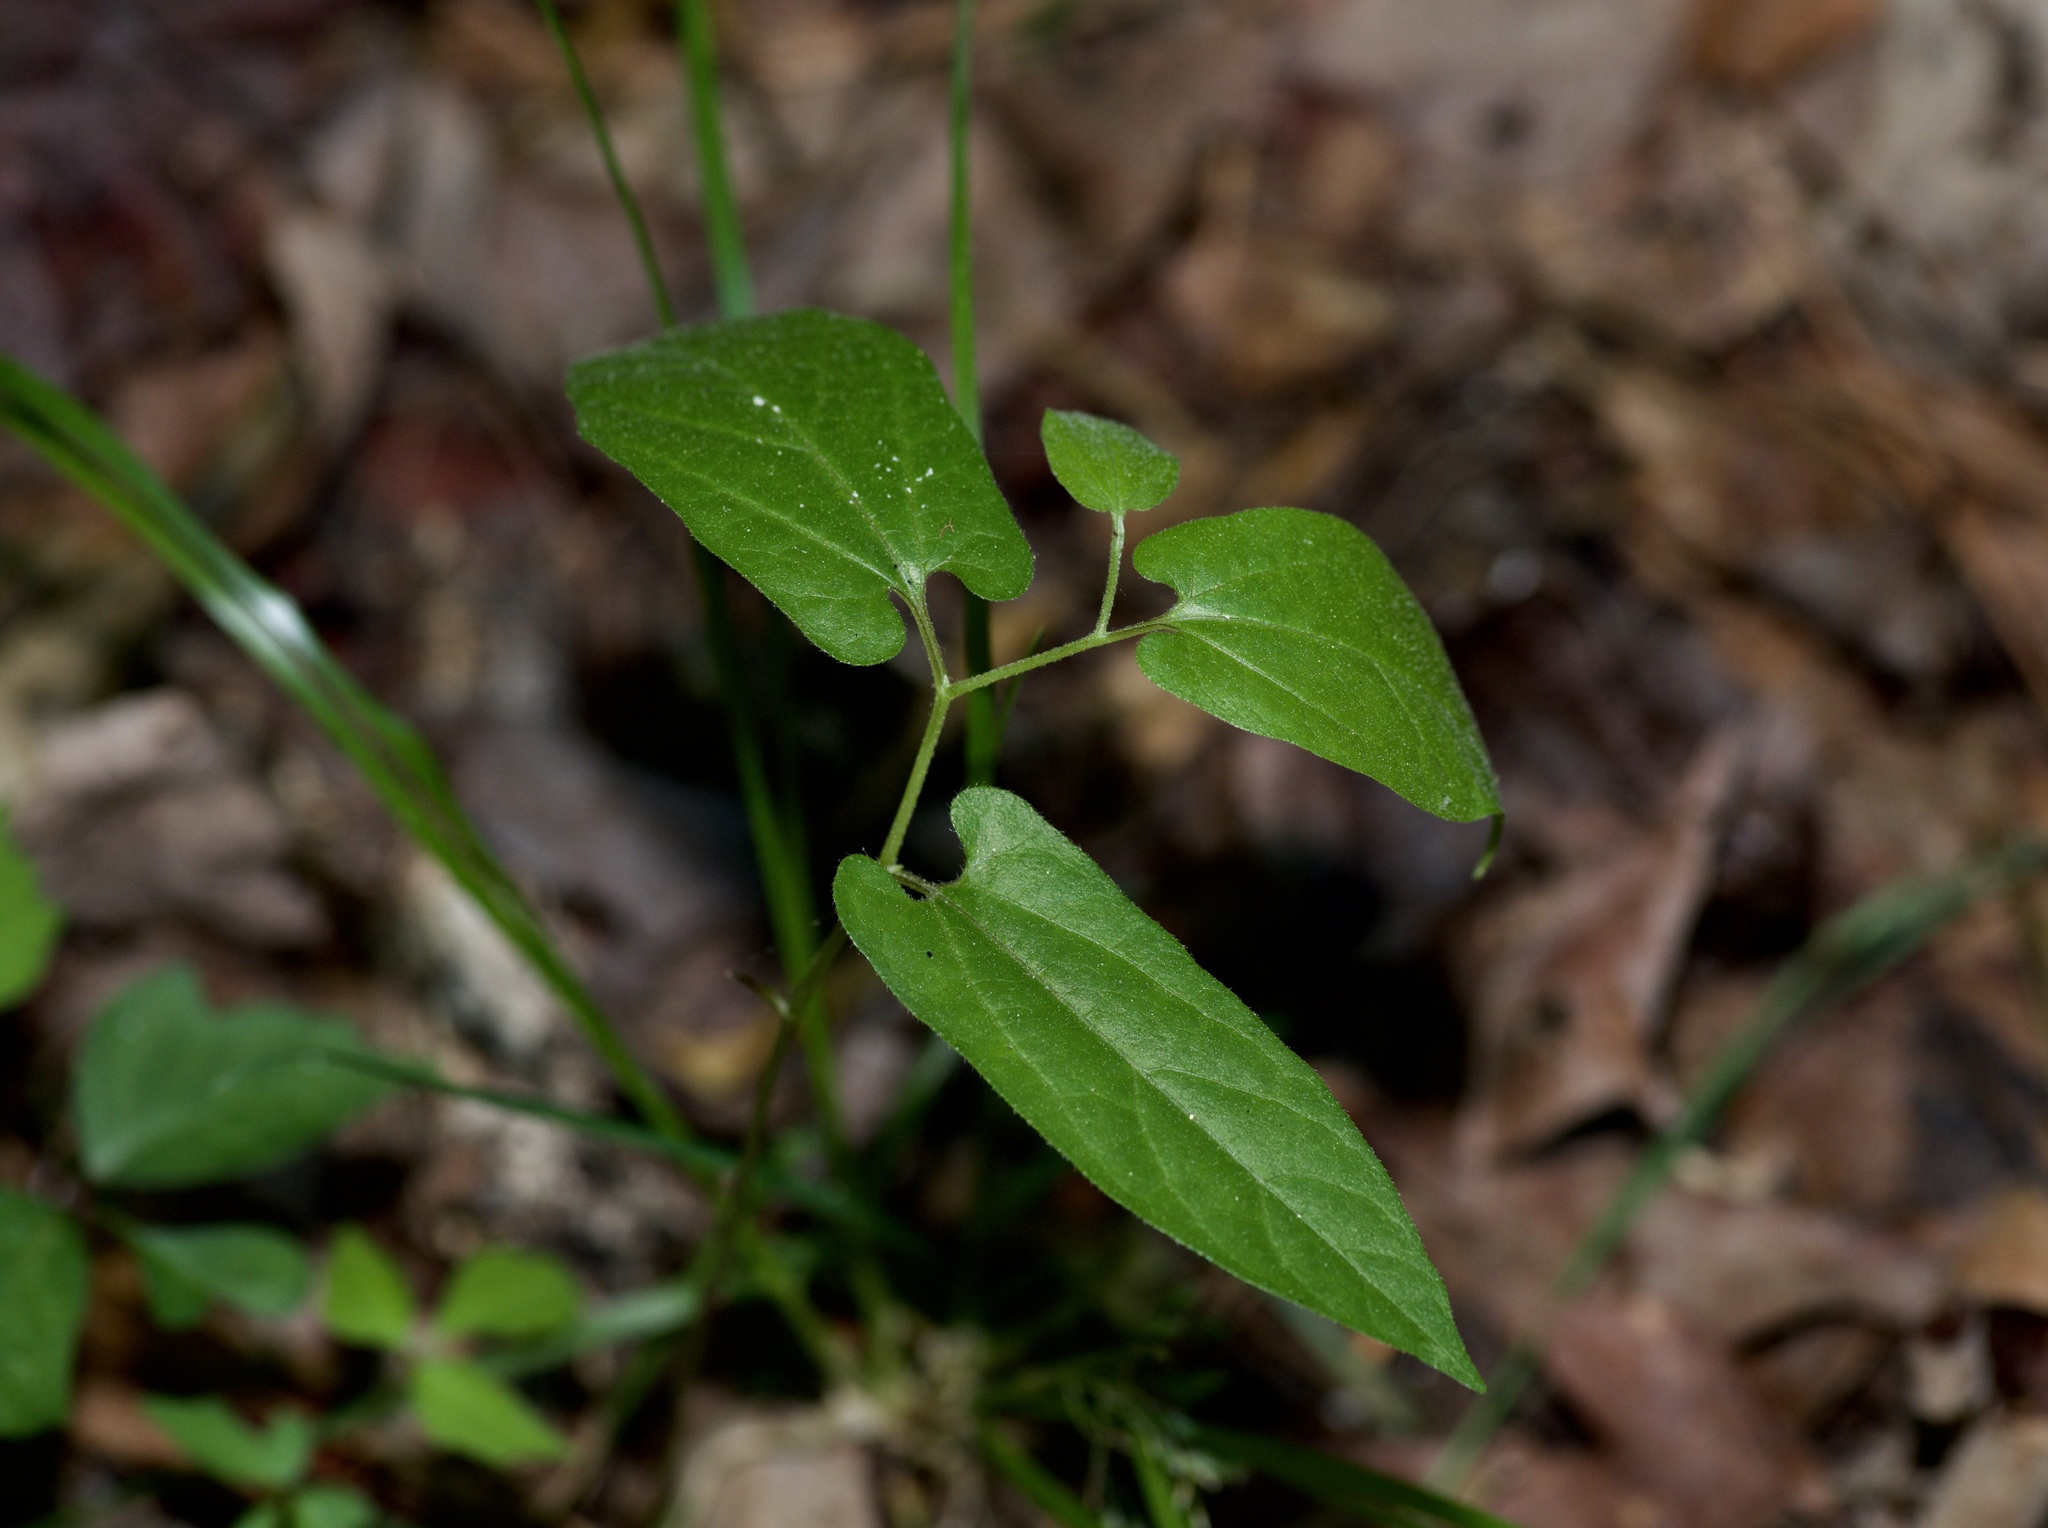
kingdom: Plantae
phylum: Tracheophyta
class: Magnoliopsida
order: Piperales
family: Aristolochiaceae
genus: Endodeca
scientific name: Endodeca serpentaria
